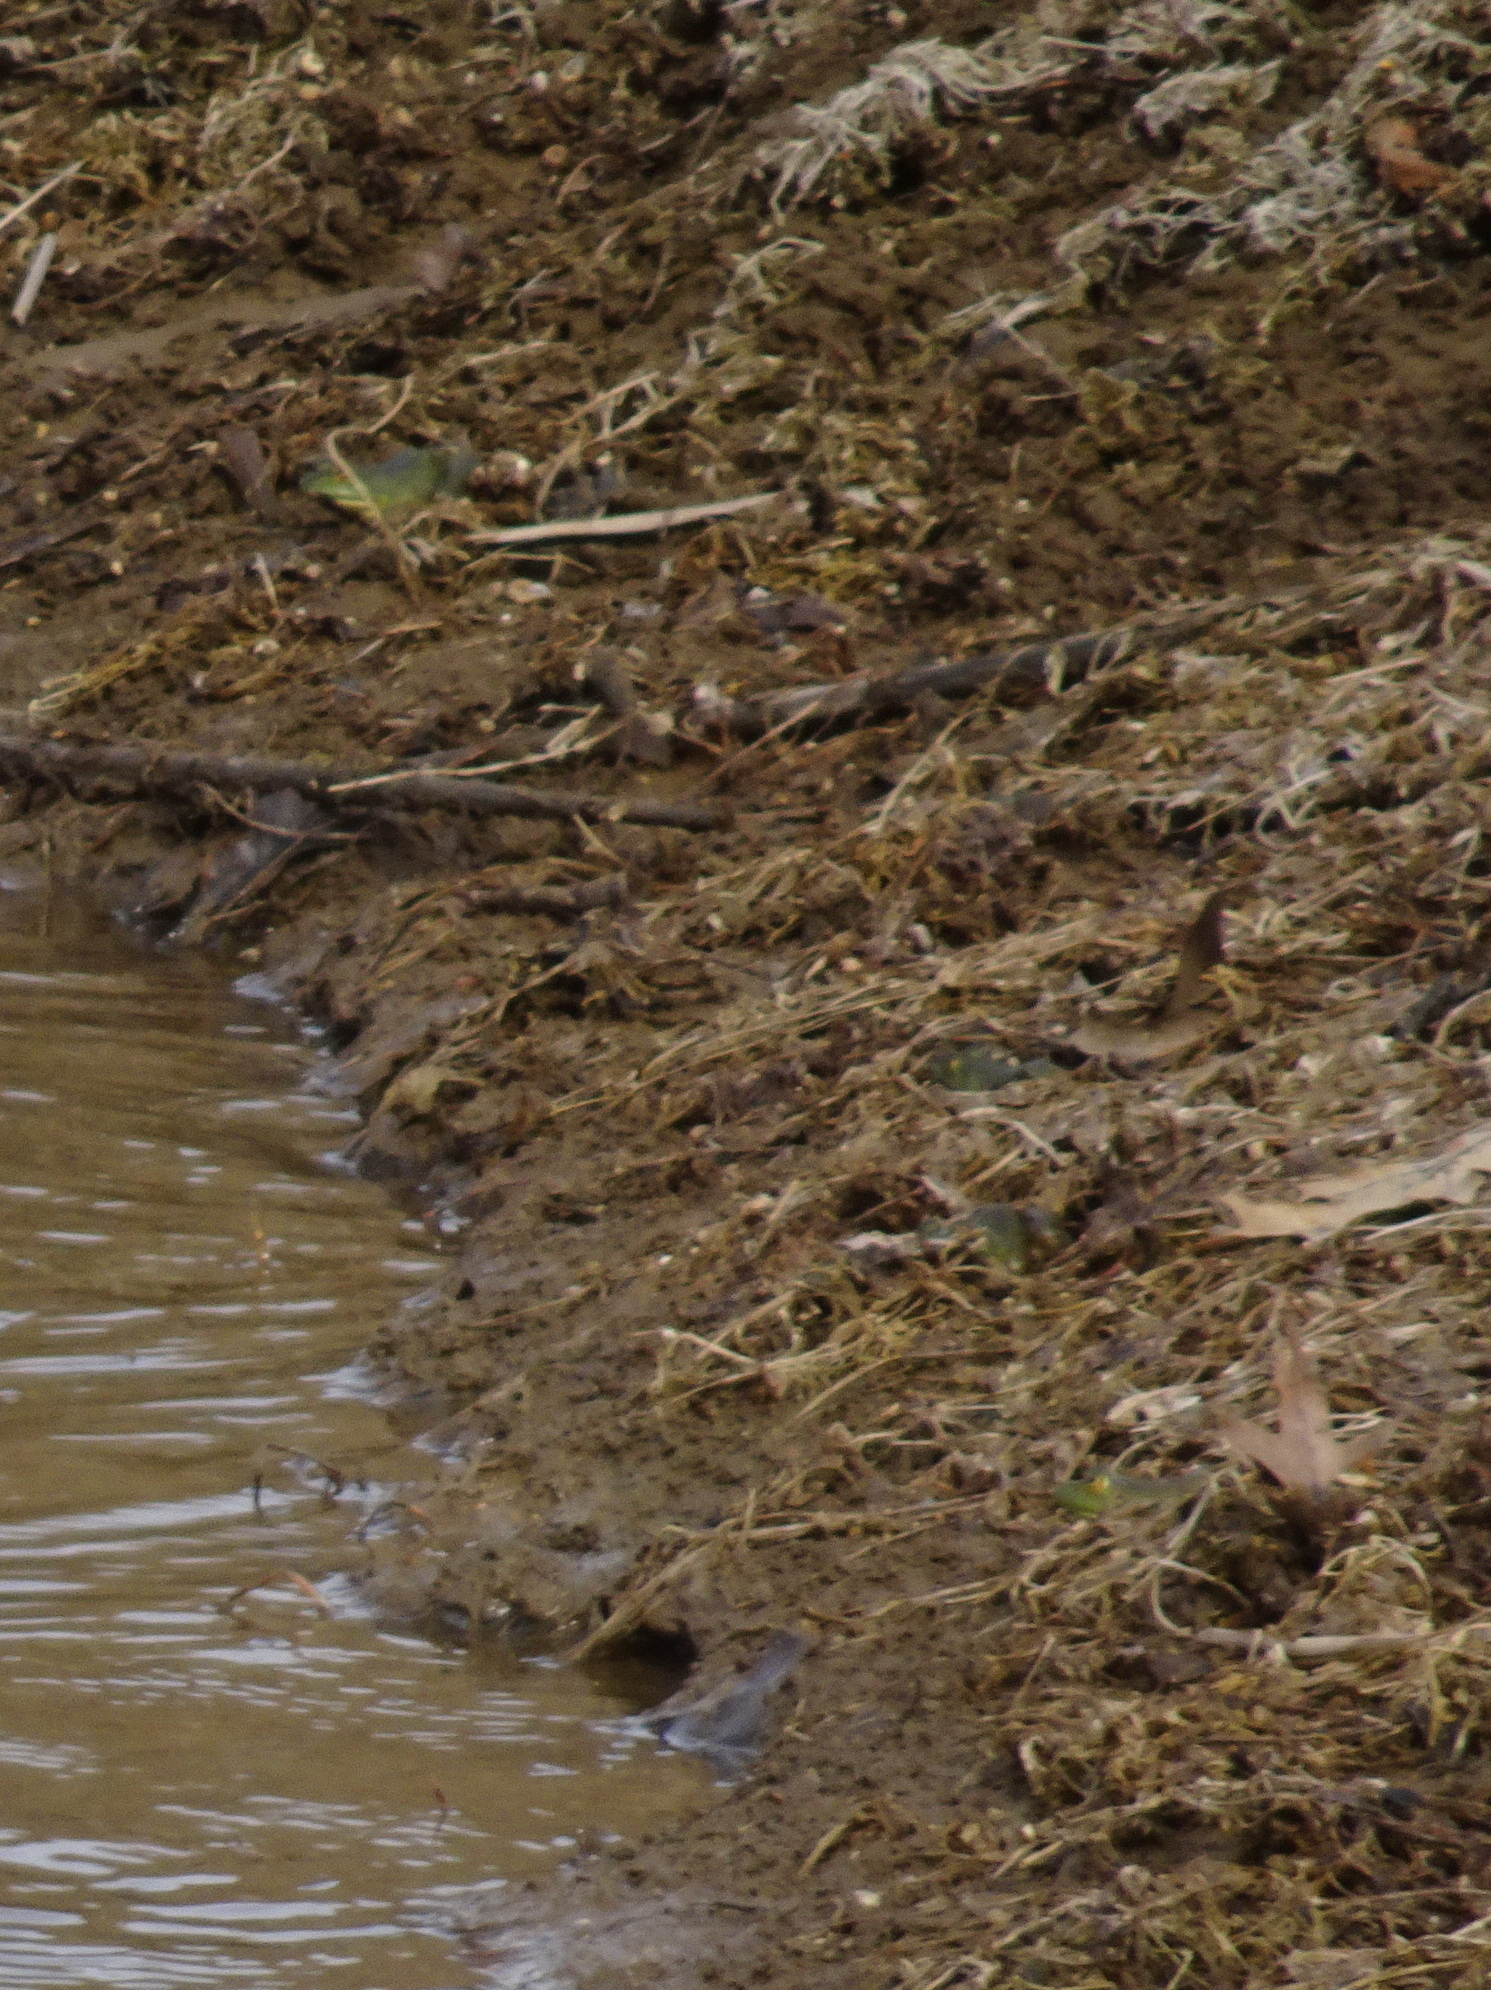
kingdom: Animalia
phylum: Chordata
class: Amphibia
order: Anura
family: Ranidae
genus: Lithobates
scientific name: Lithobates catesbeianus
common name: American bullfrog
